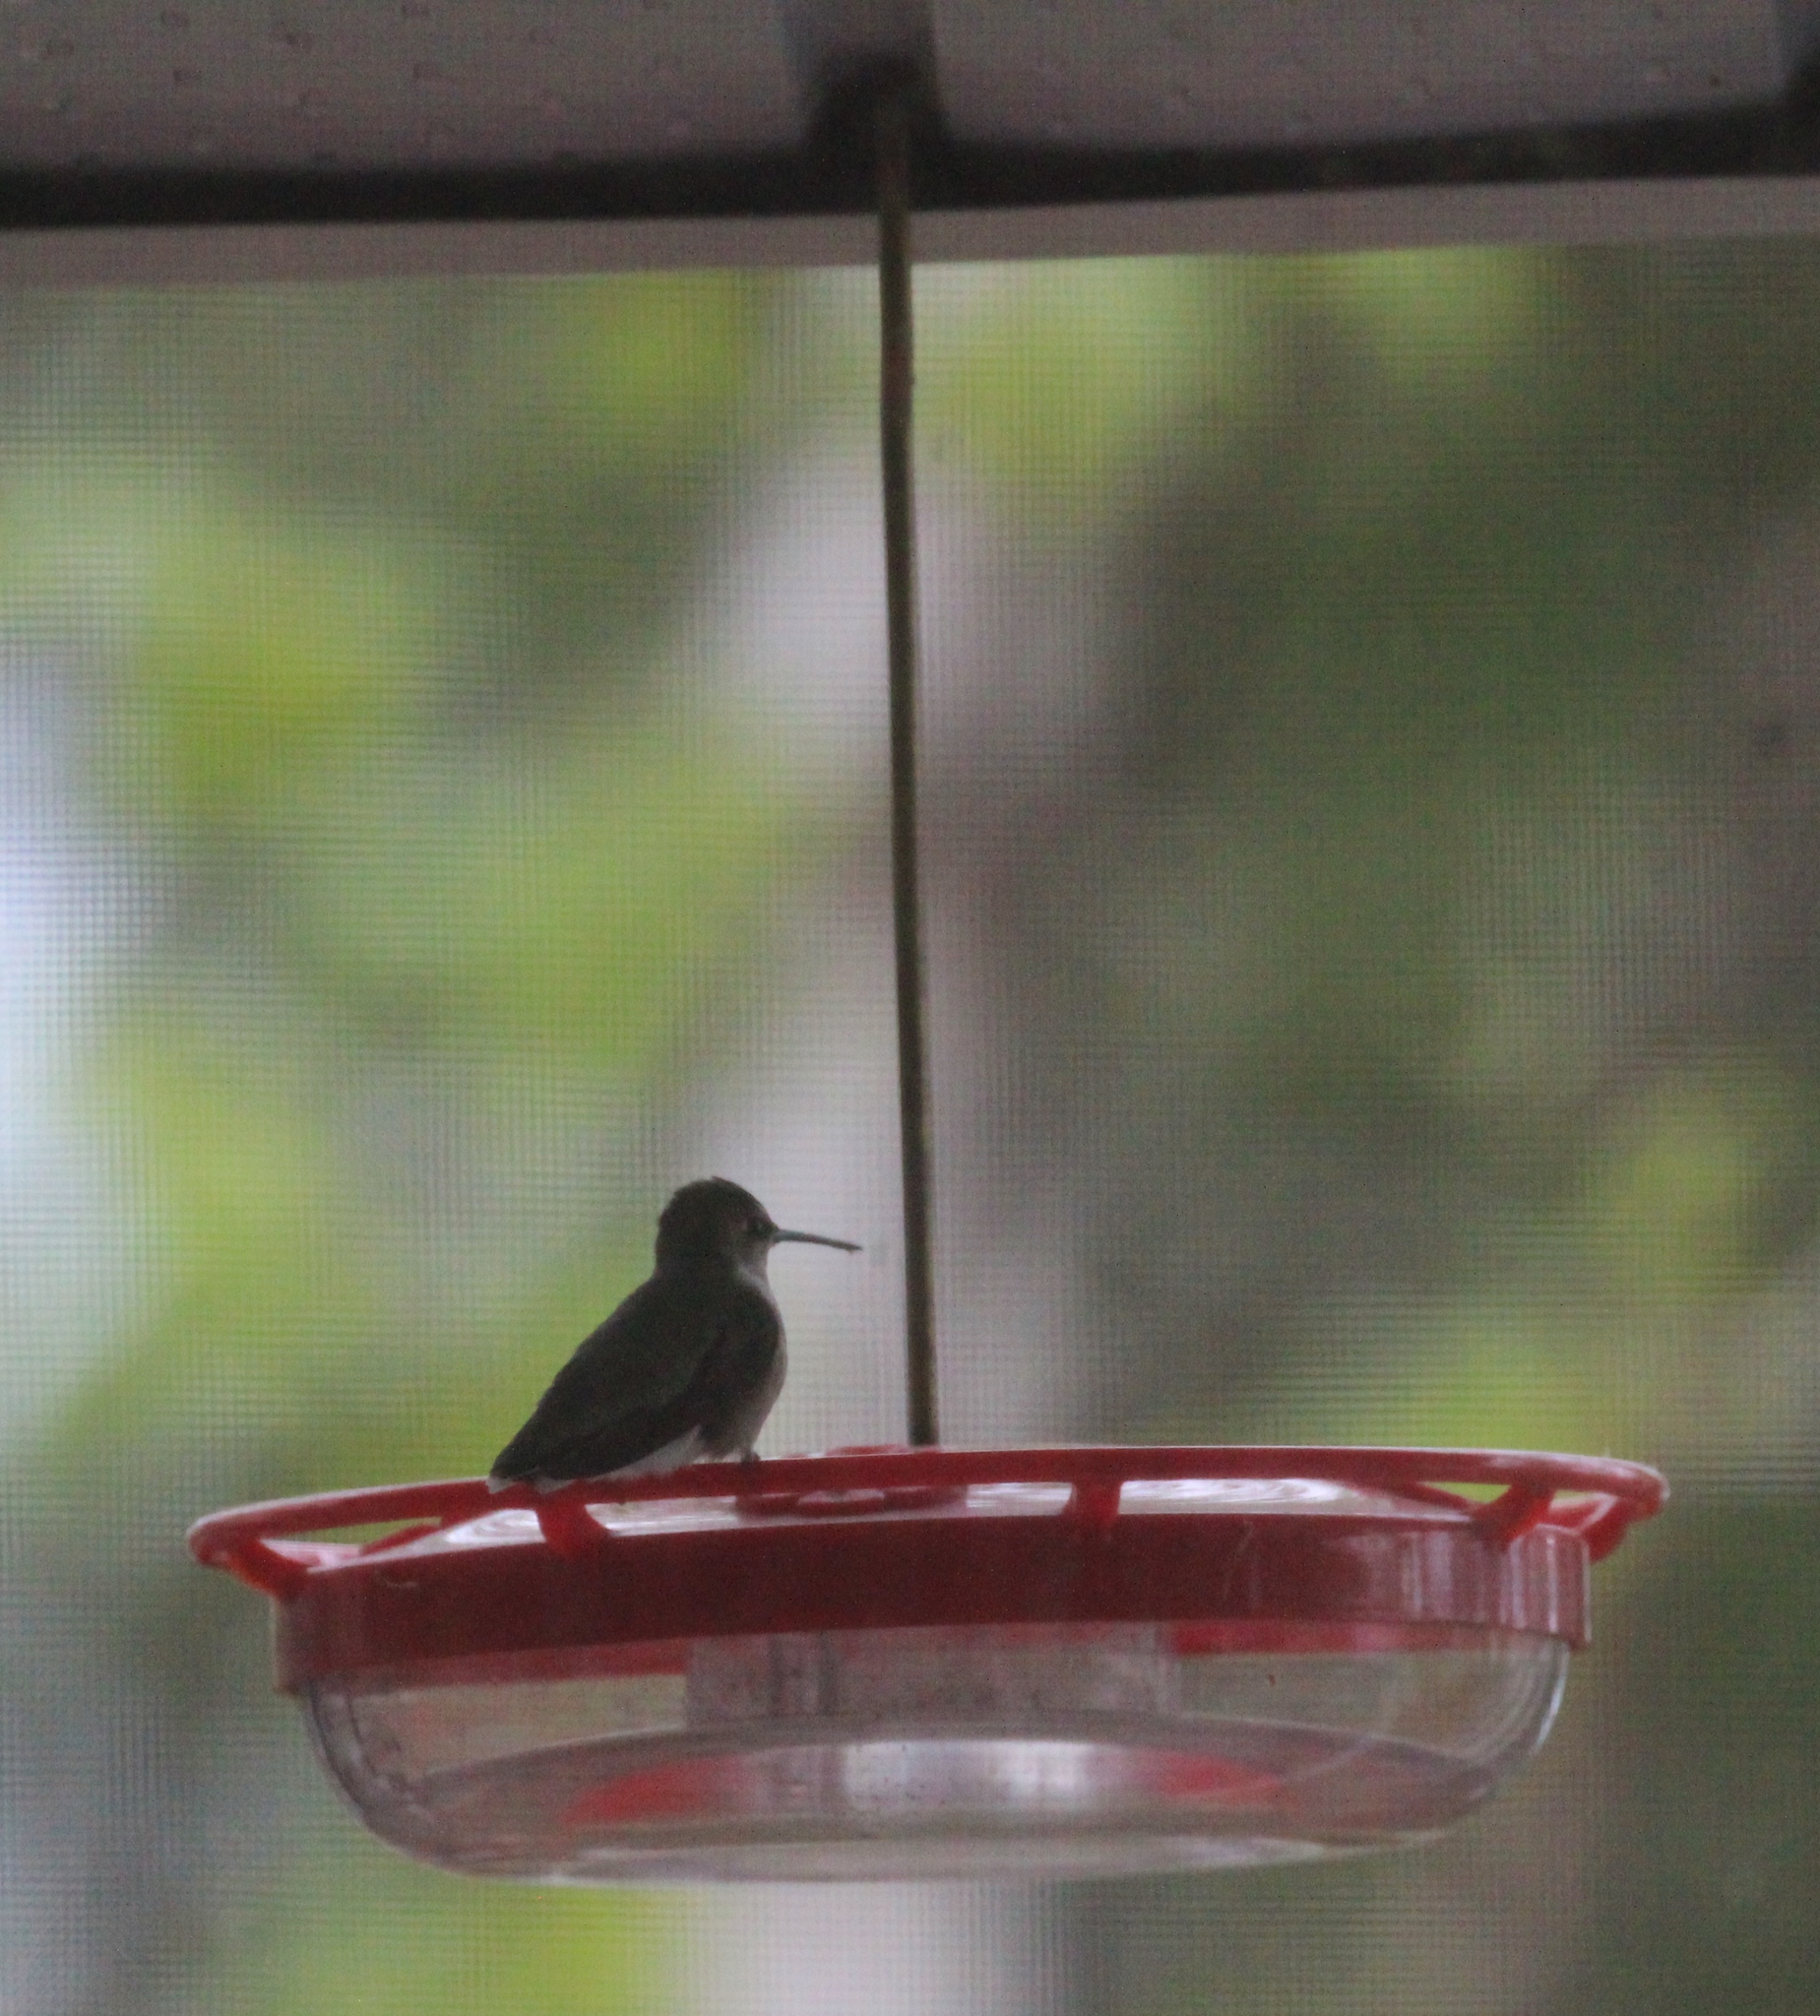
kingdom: Animalia
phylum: Chordata
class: Aves
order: Apodiformes
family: Trochilidae
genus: Archilochus
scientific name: Archilochus colubris
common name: Ruby-throated hummingbird
